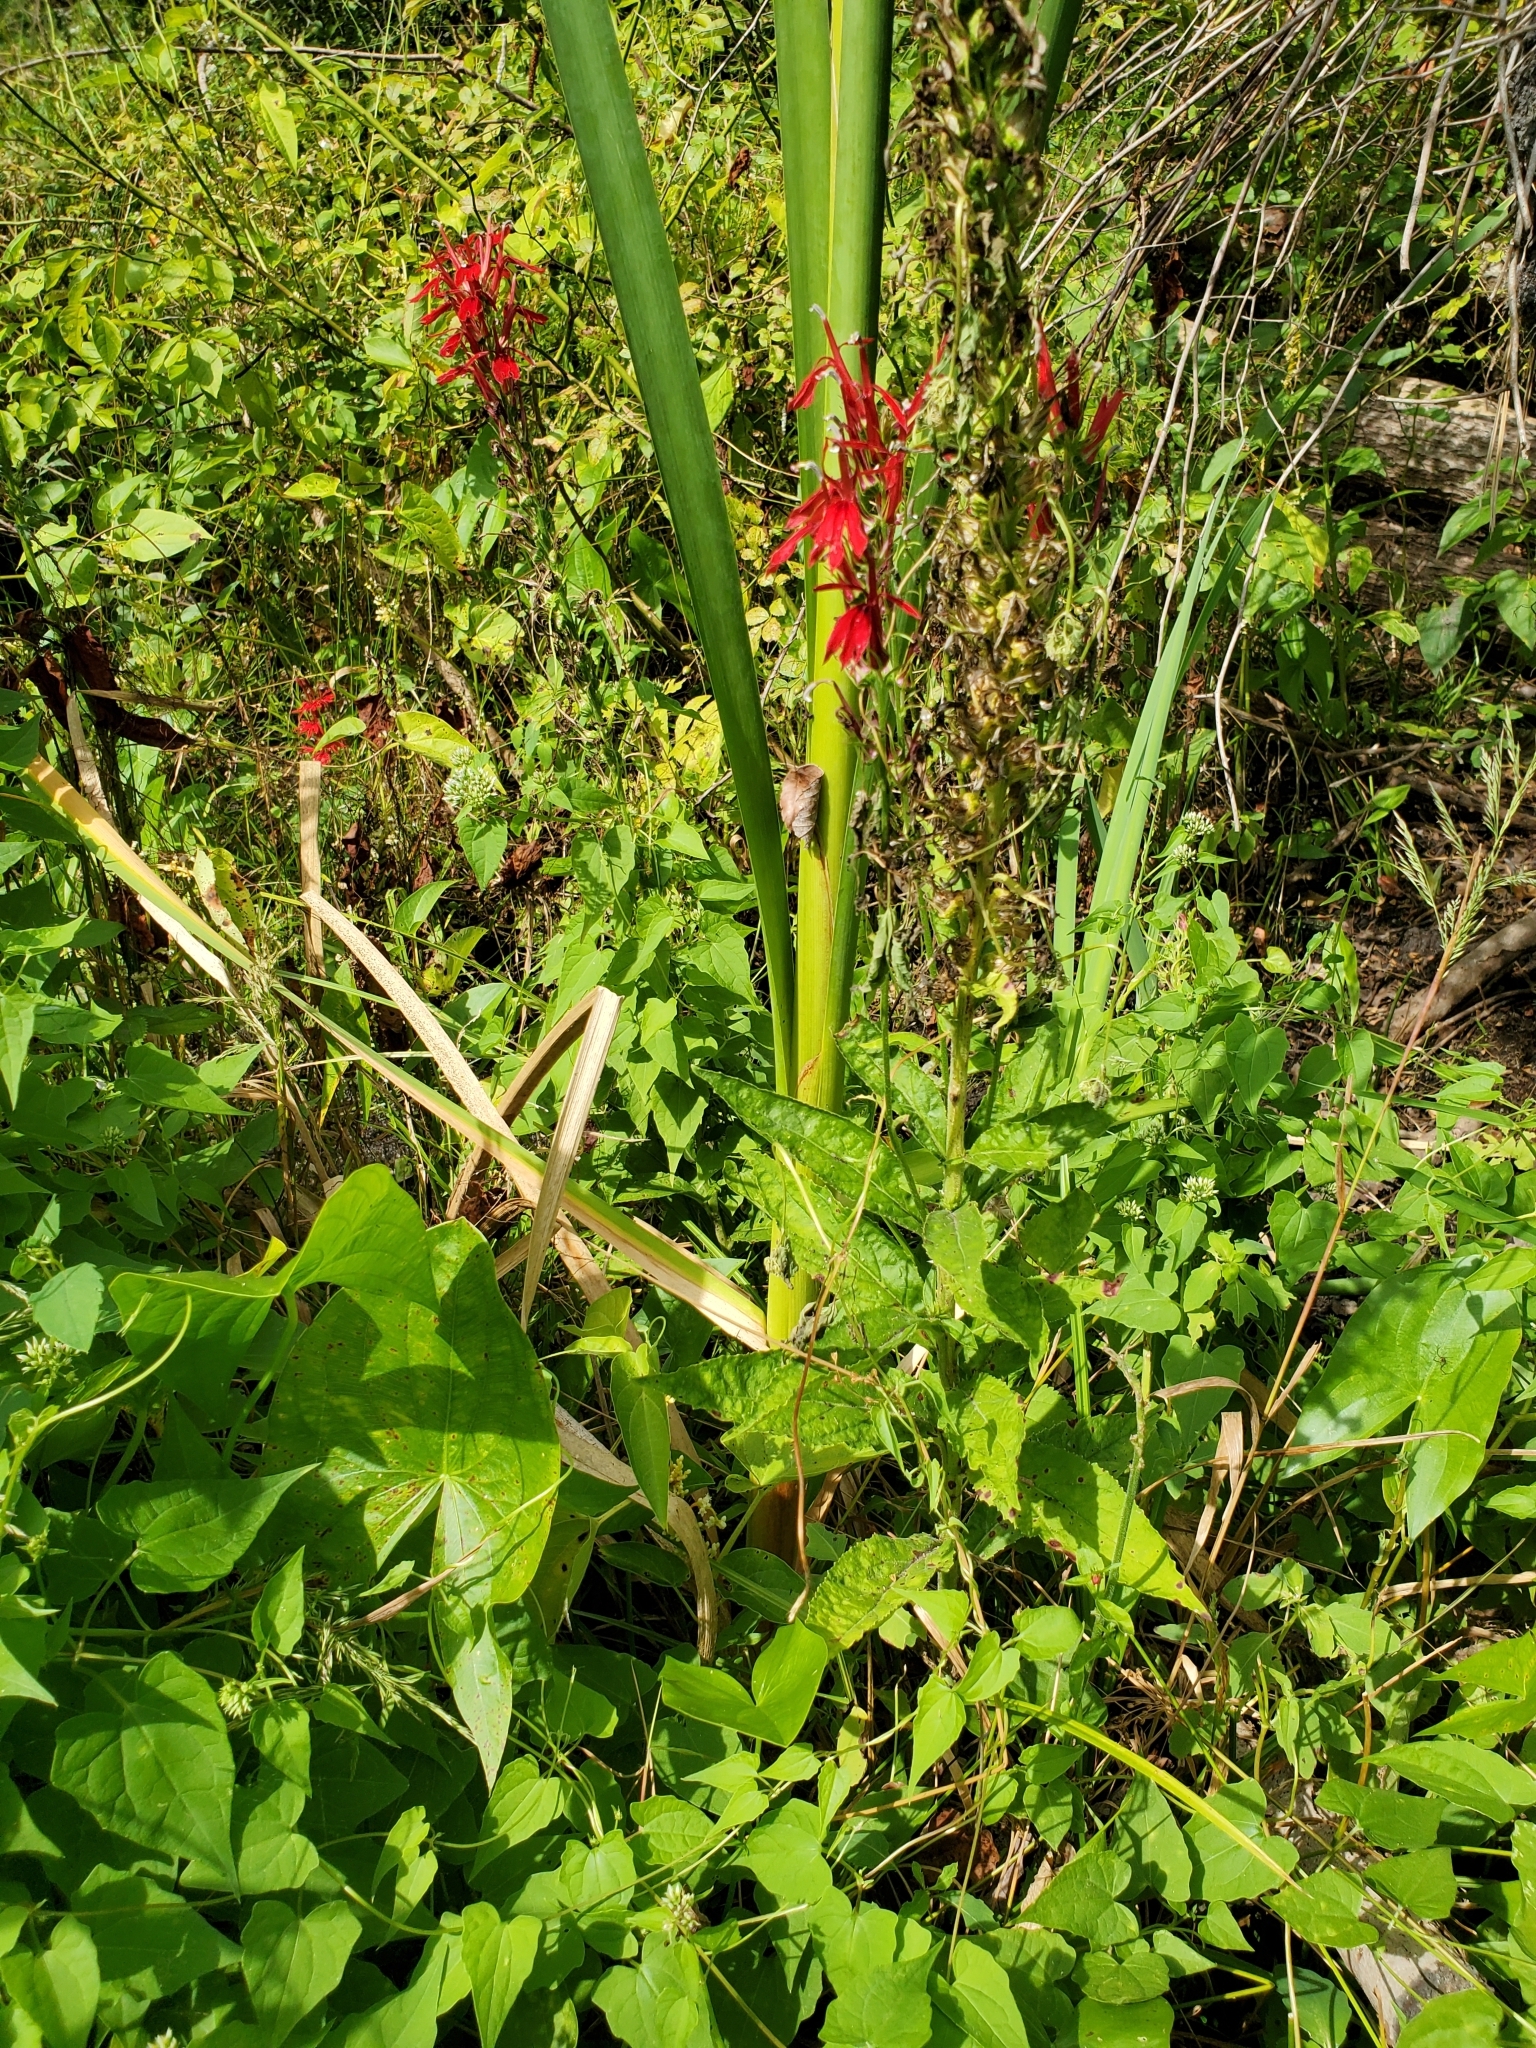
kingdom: Plantae
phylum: Tracheophyta
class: Magnoliopsida
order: Asterales
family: Campanulaceae
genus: Lobelia
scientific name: Lobelia cardinalis
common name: Cardinal flower
